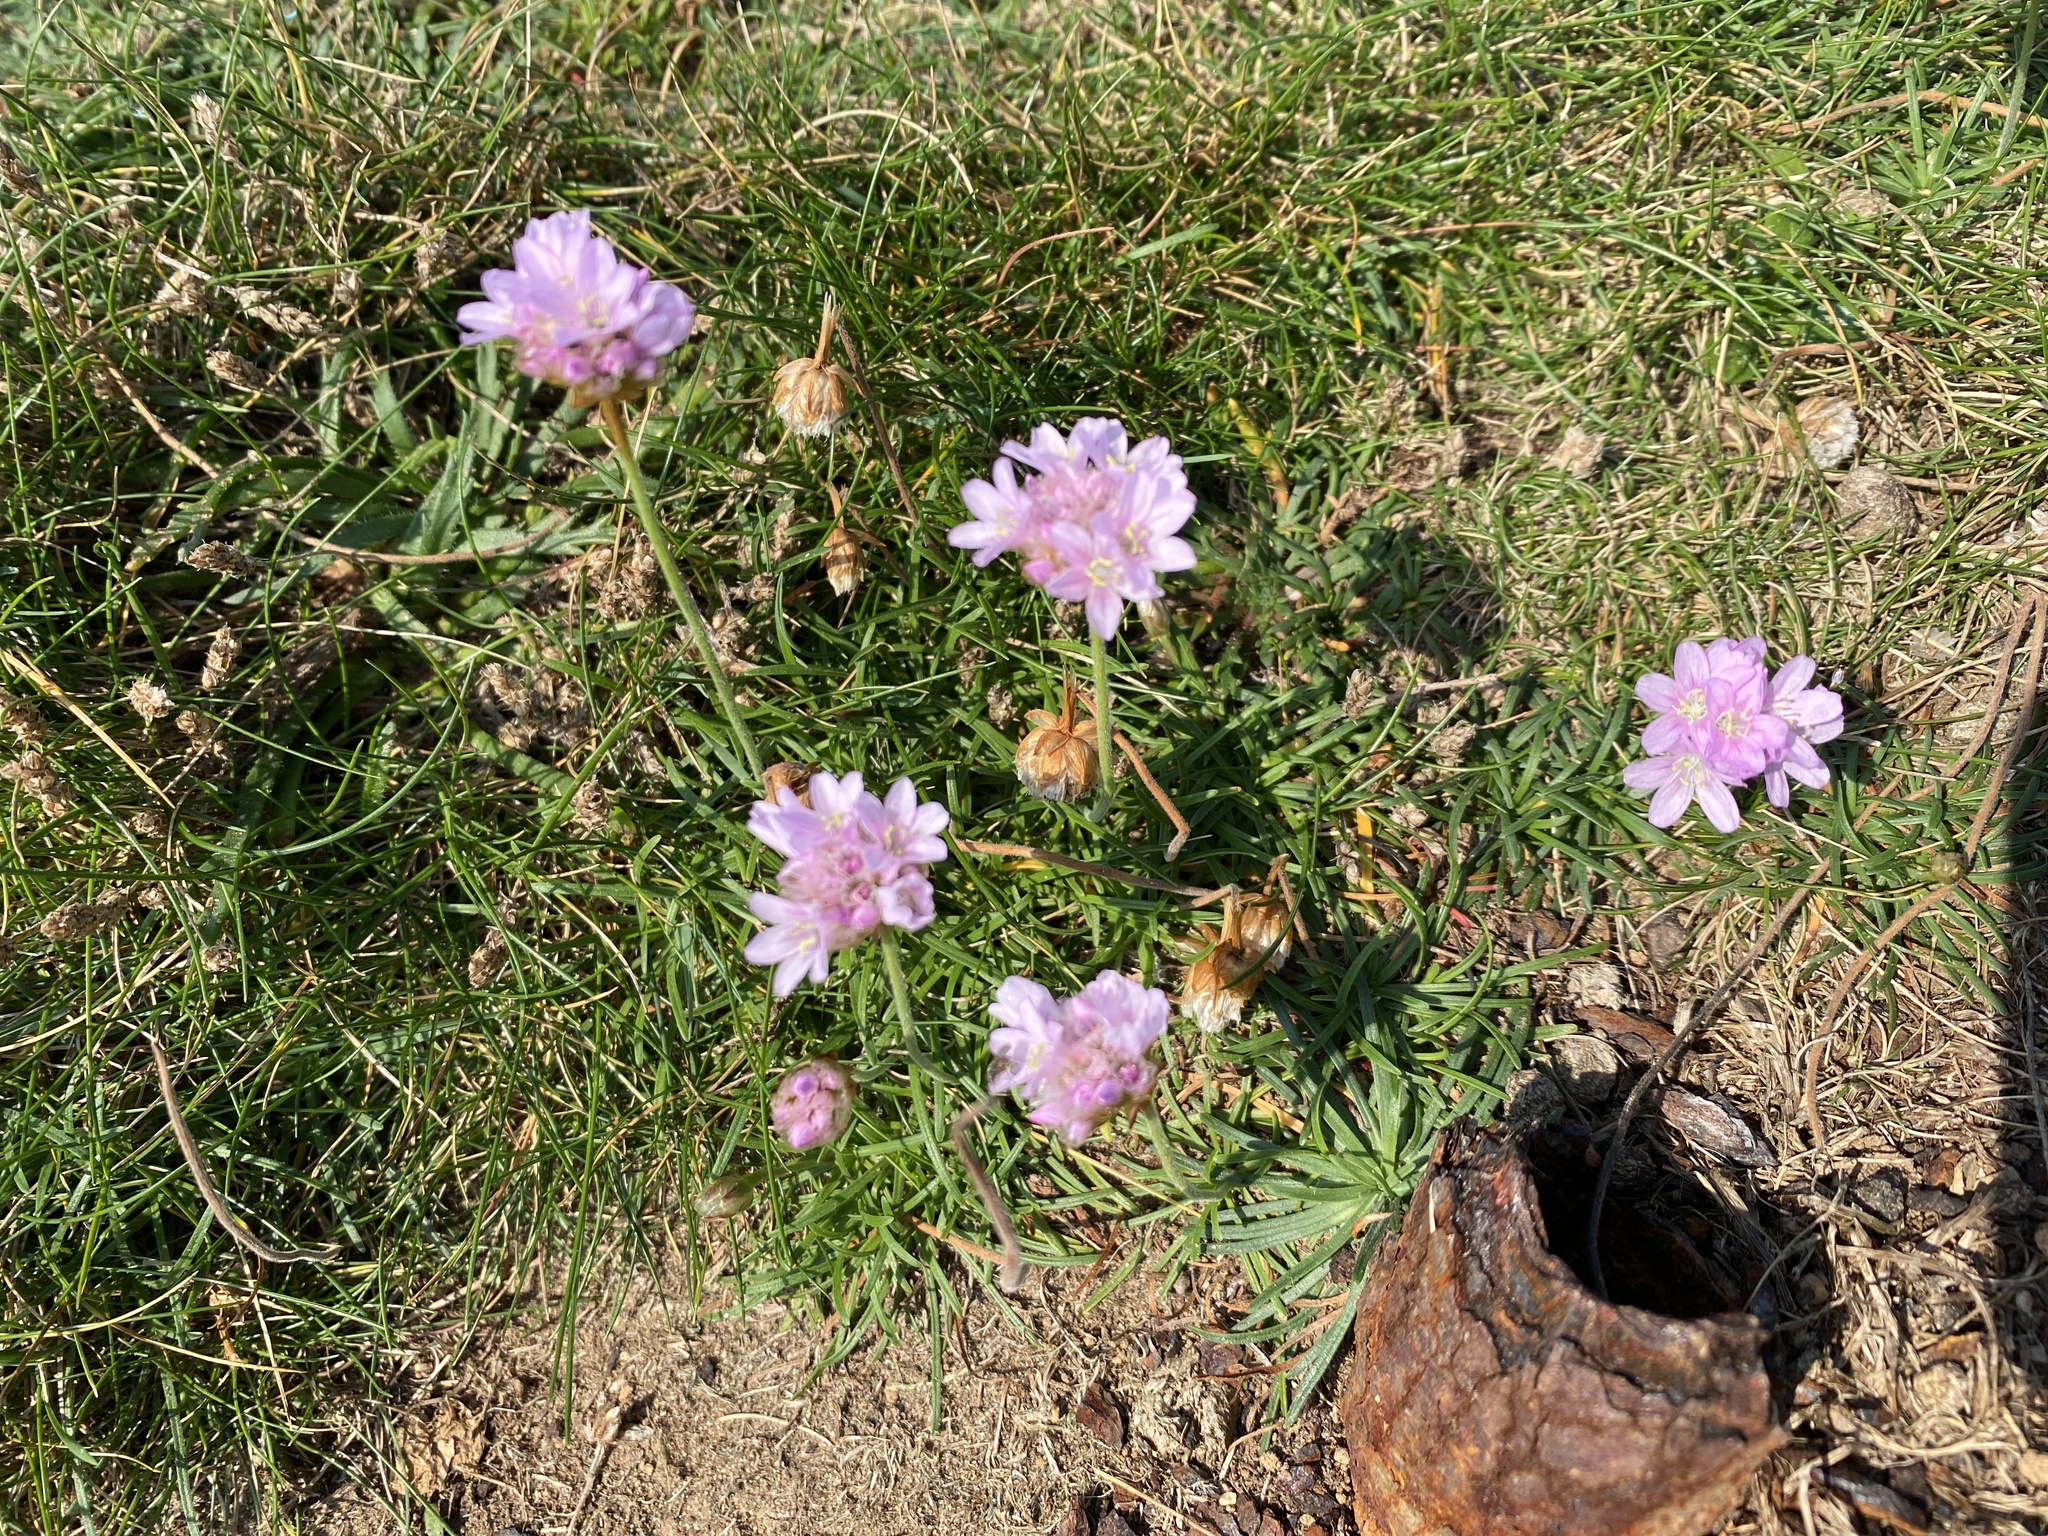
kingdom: Plantae
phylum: Tracheophyta
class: Magnoliopsida
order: Caryophyllales
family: Plumbaginaceae
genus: Armeria
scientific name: Armeria maritima
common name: Thrift
